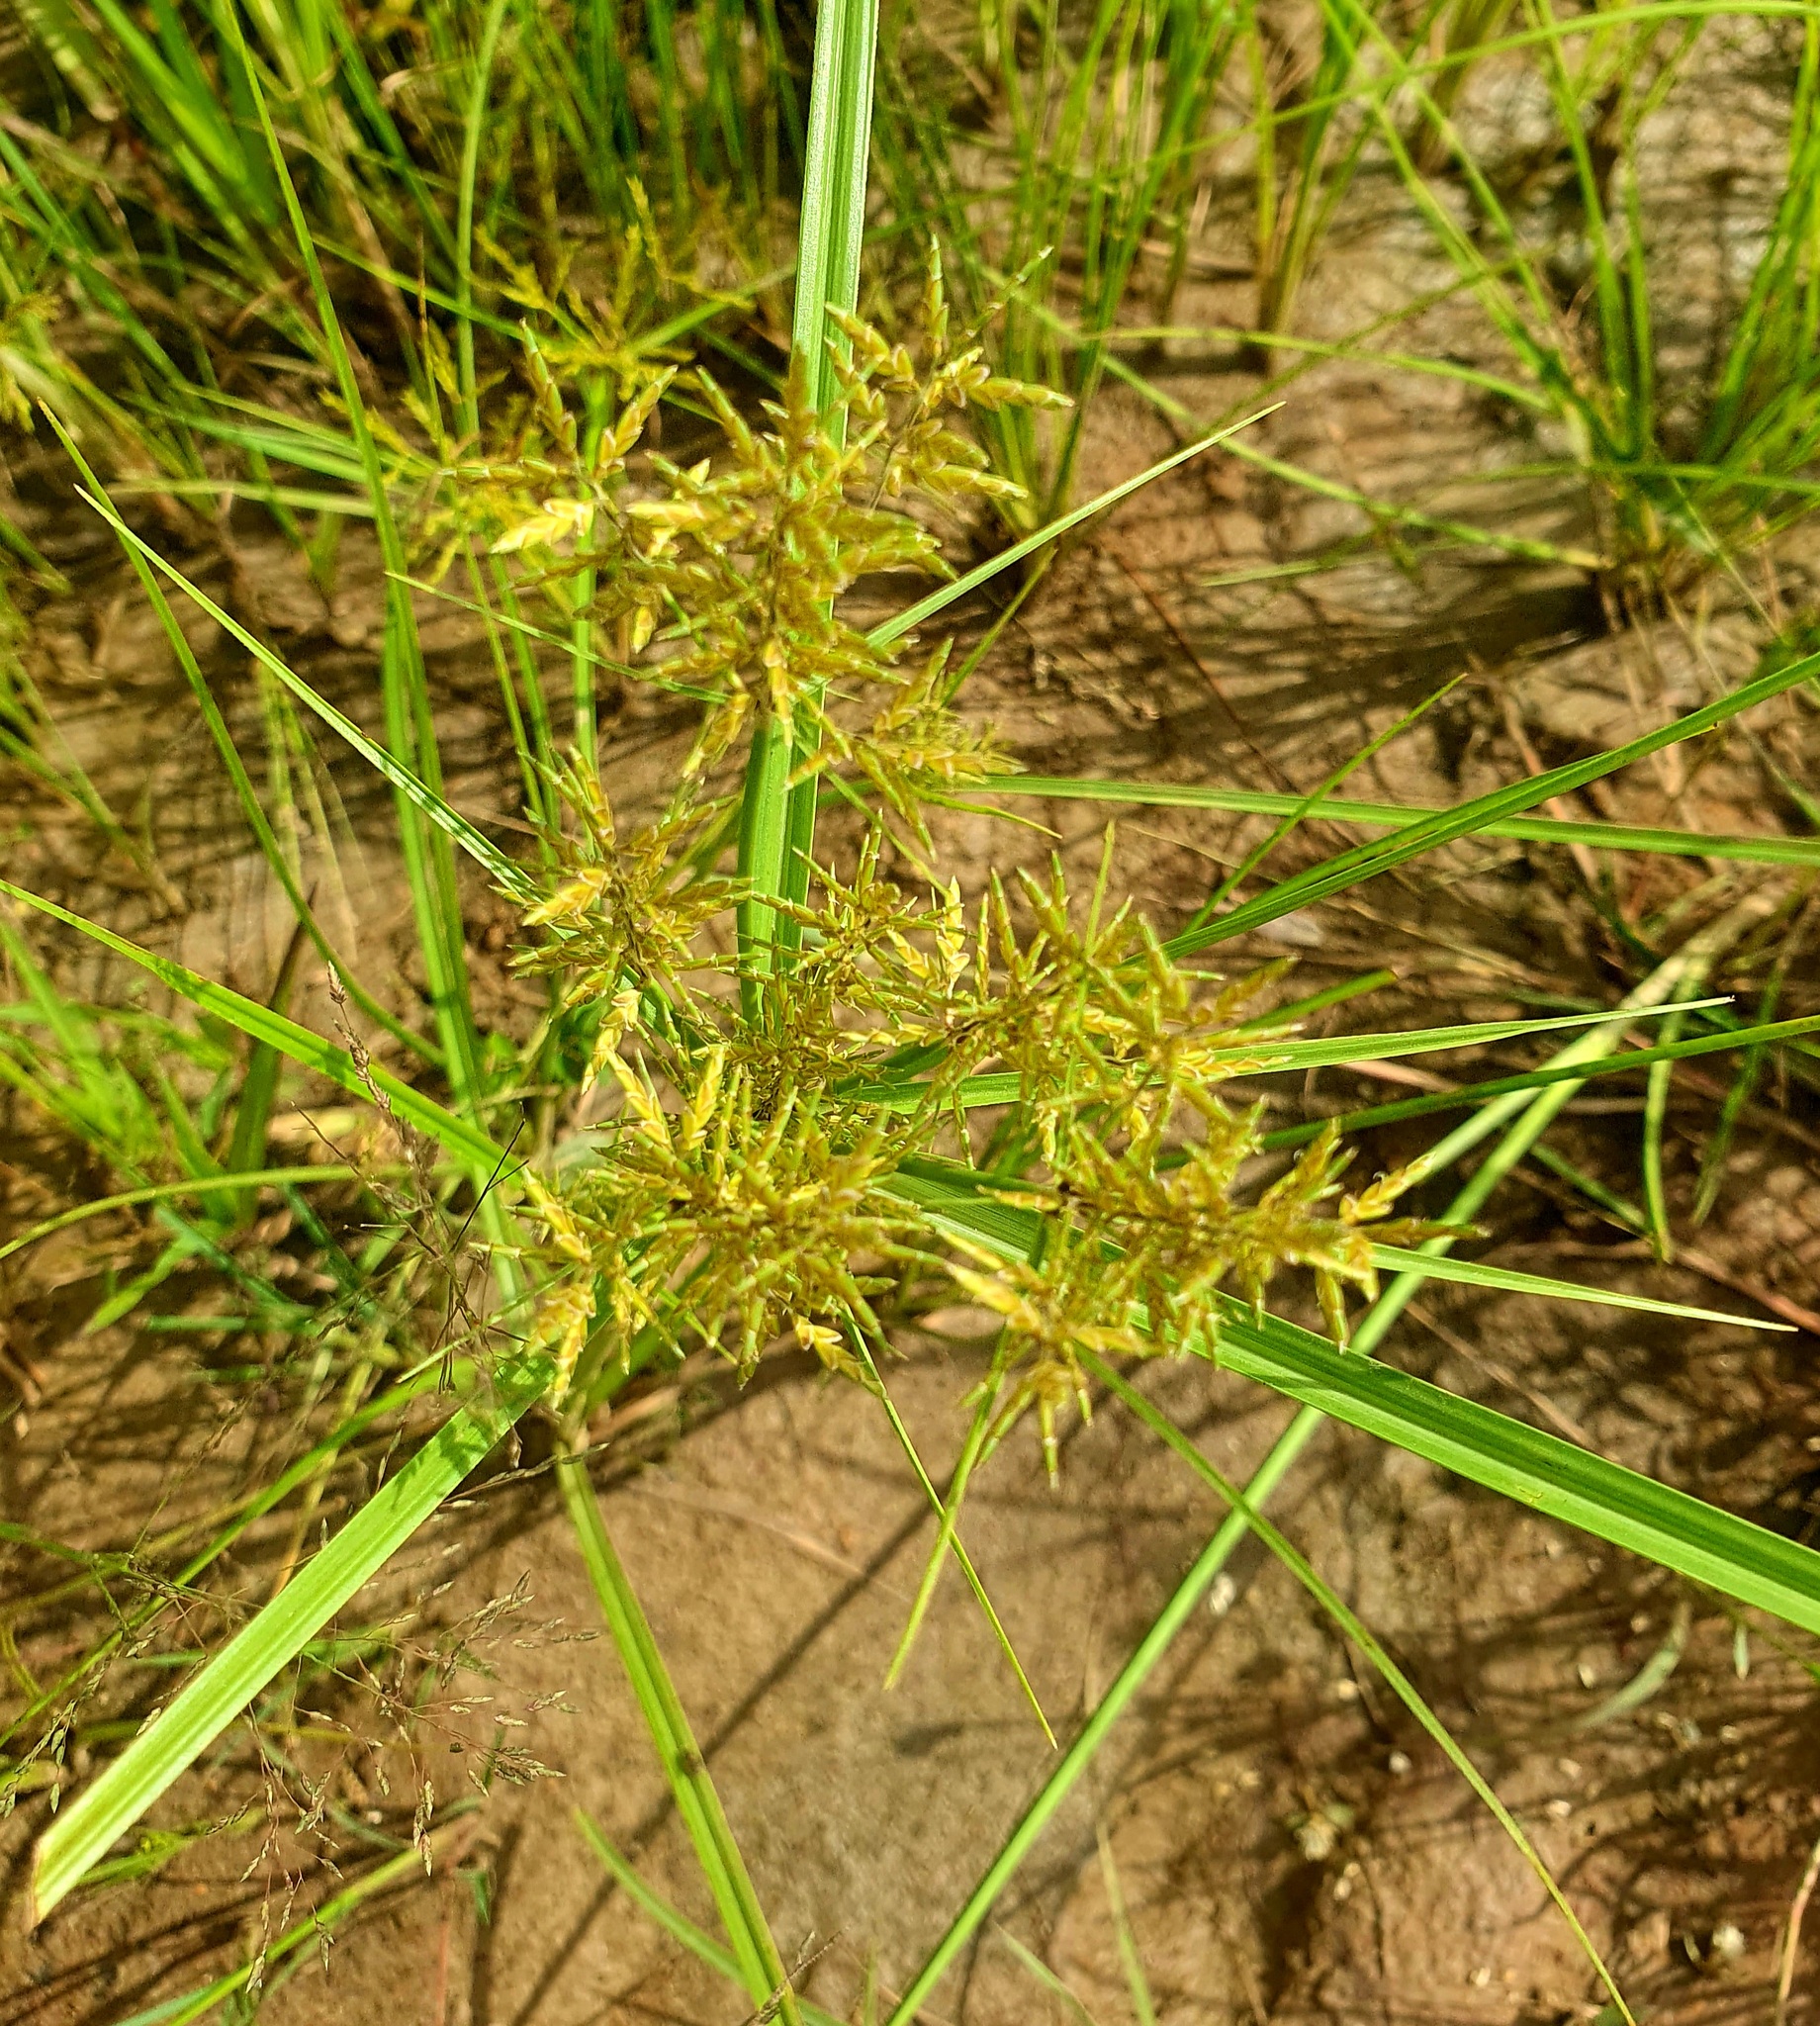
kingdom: Plantae
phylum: Tracheophyta
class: Liliopsida
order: Poales
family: Cyperaceae
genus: Cyperus
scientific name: Cyperus esculentus
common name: Yellow nutsedge
